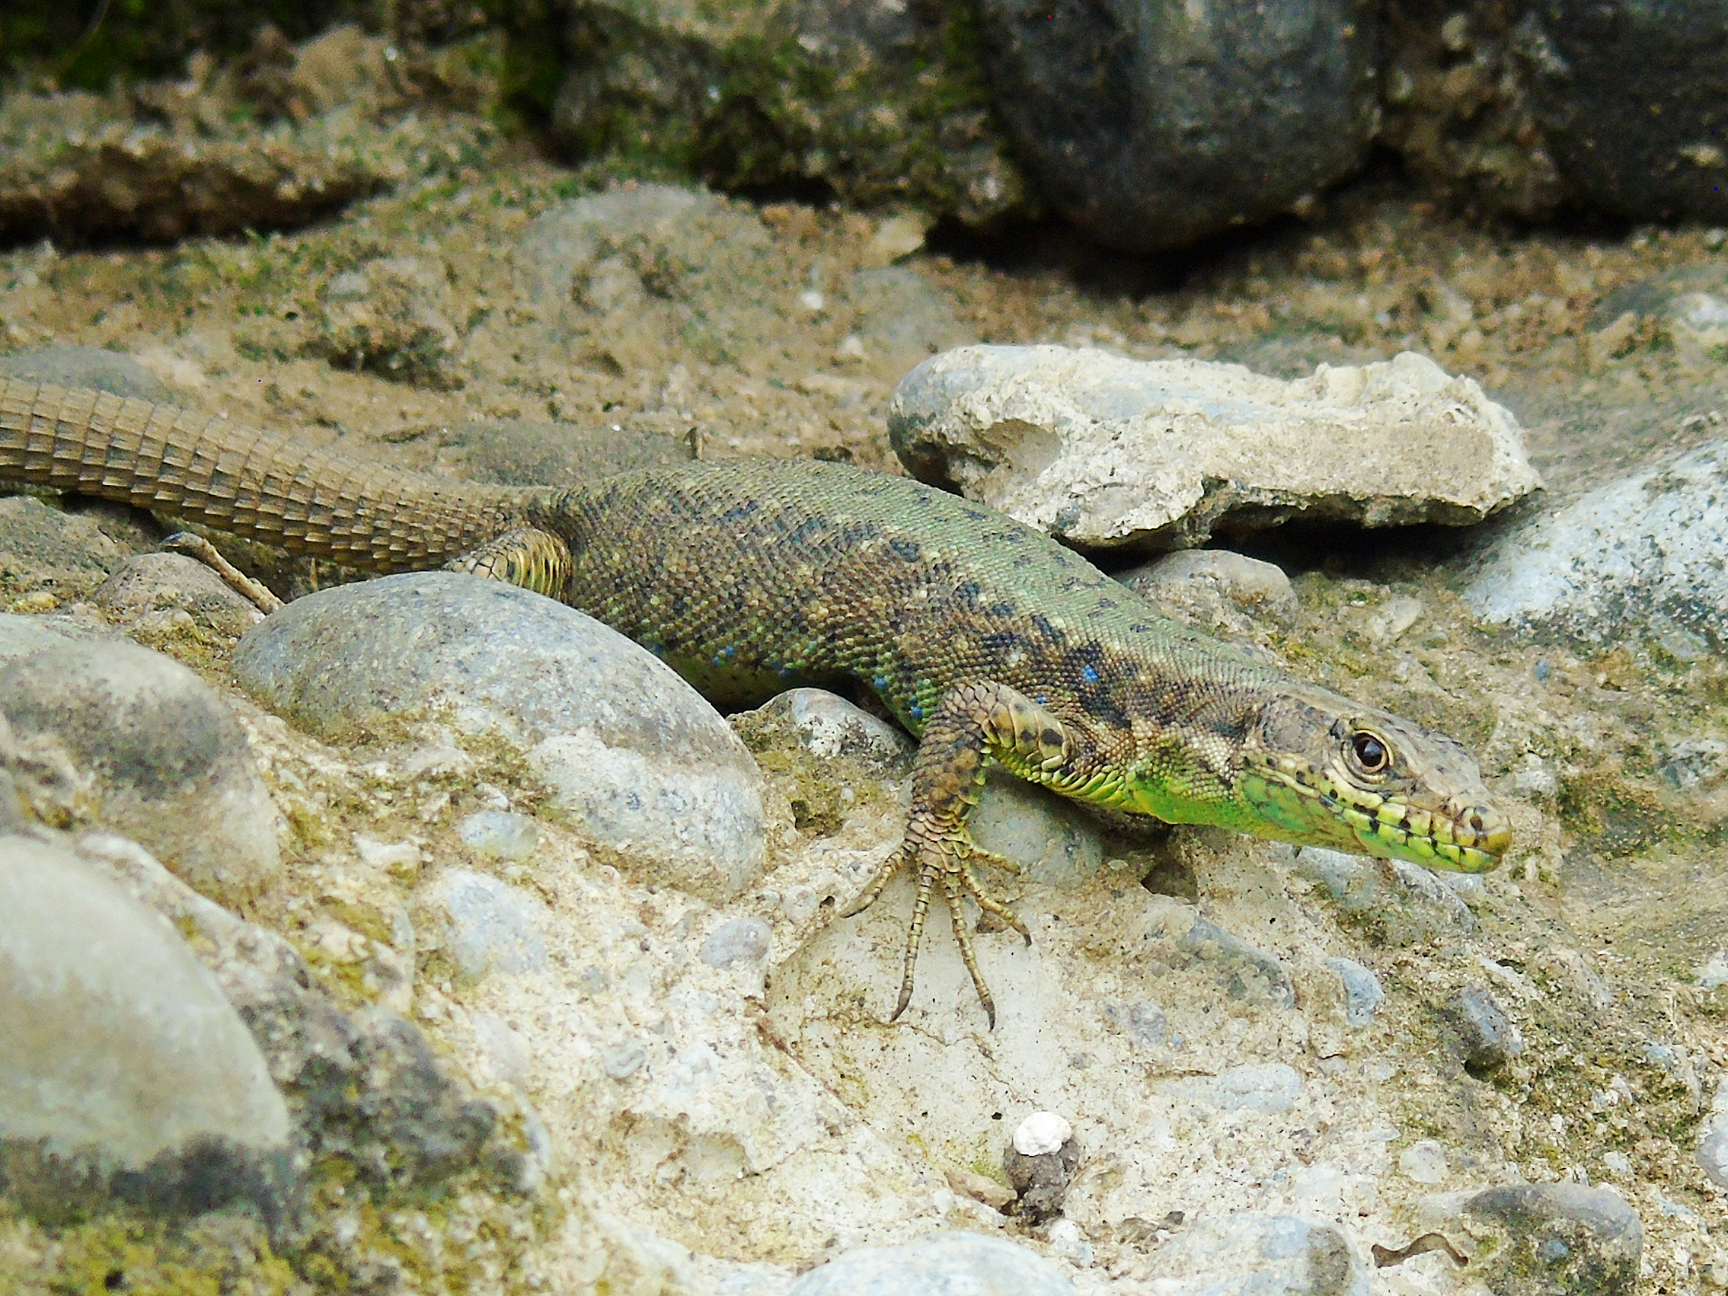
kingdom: Animalia
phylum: Chordata
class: Squamata
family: Lacertidae
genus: Darevskia
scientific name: Darevskia rudis
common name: Spiny-tailed lizard
